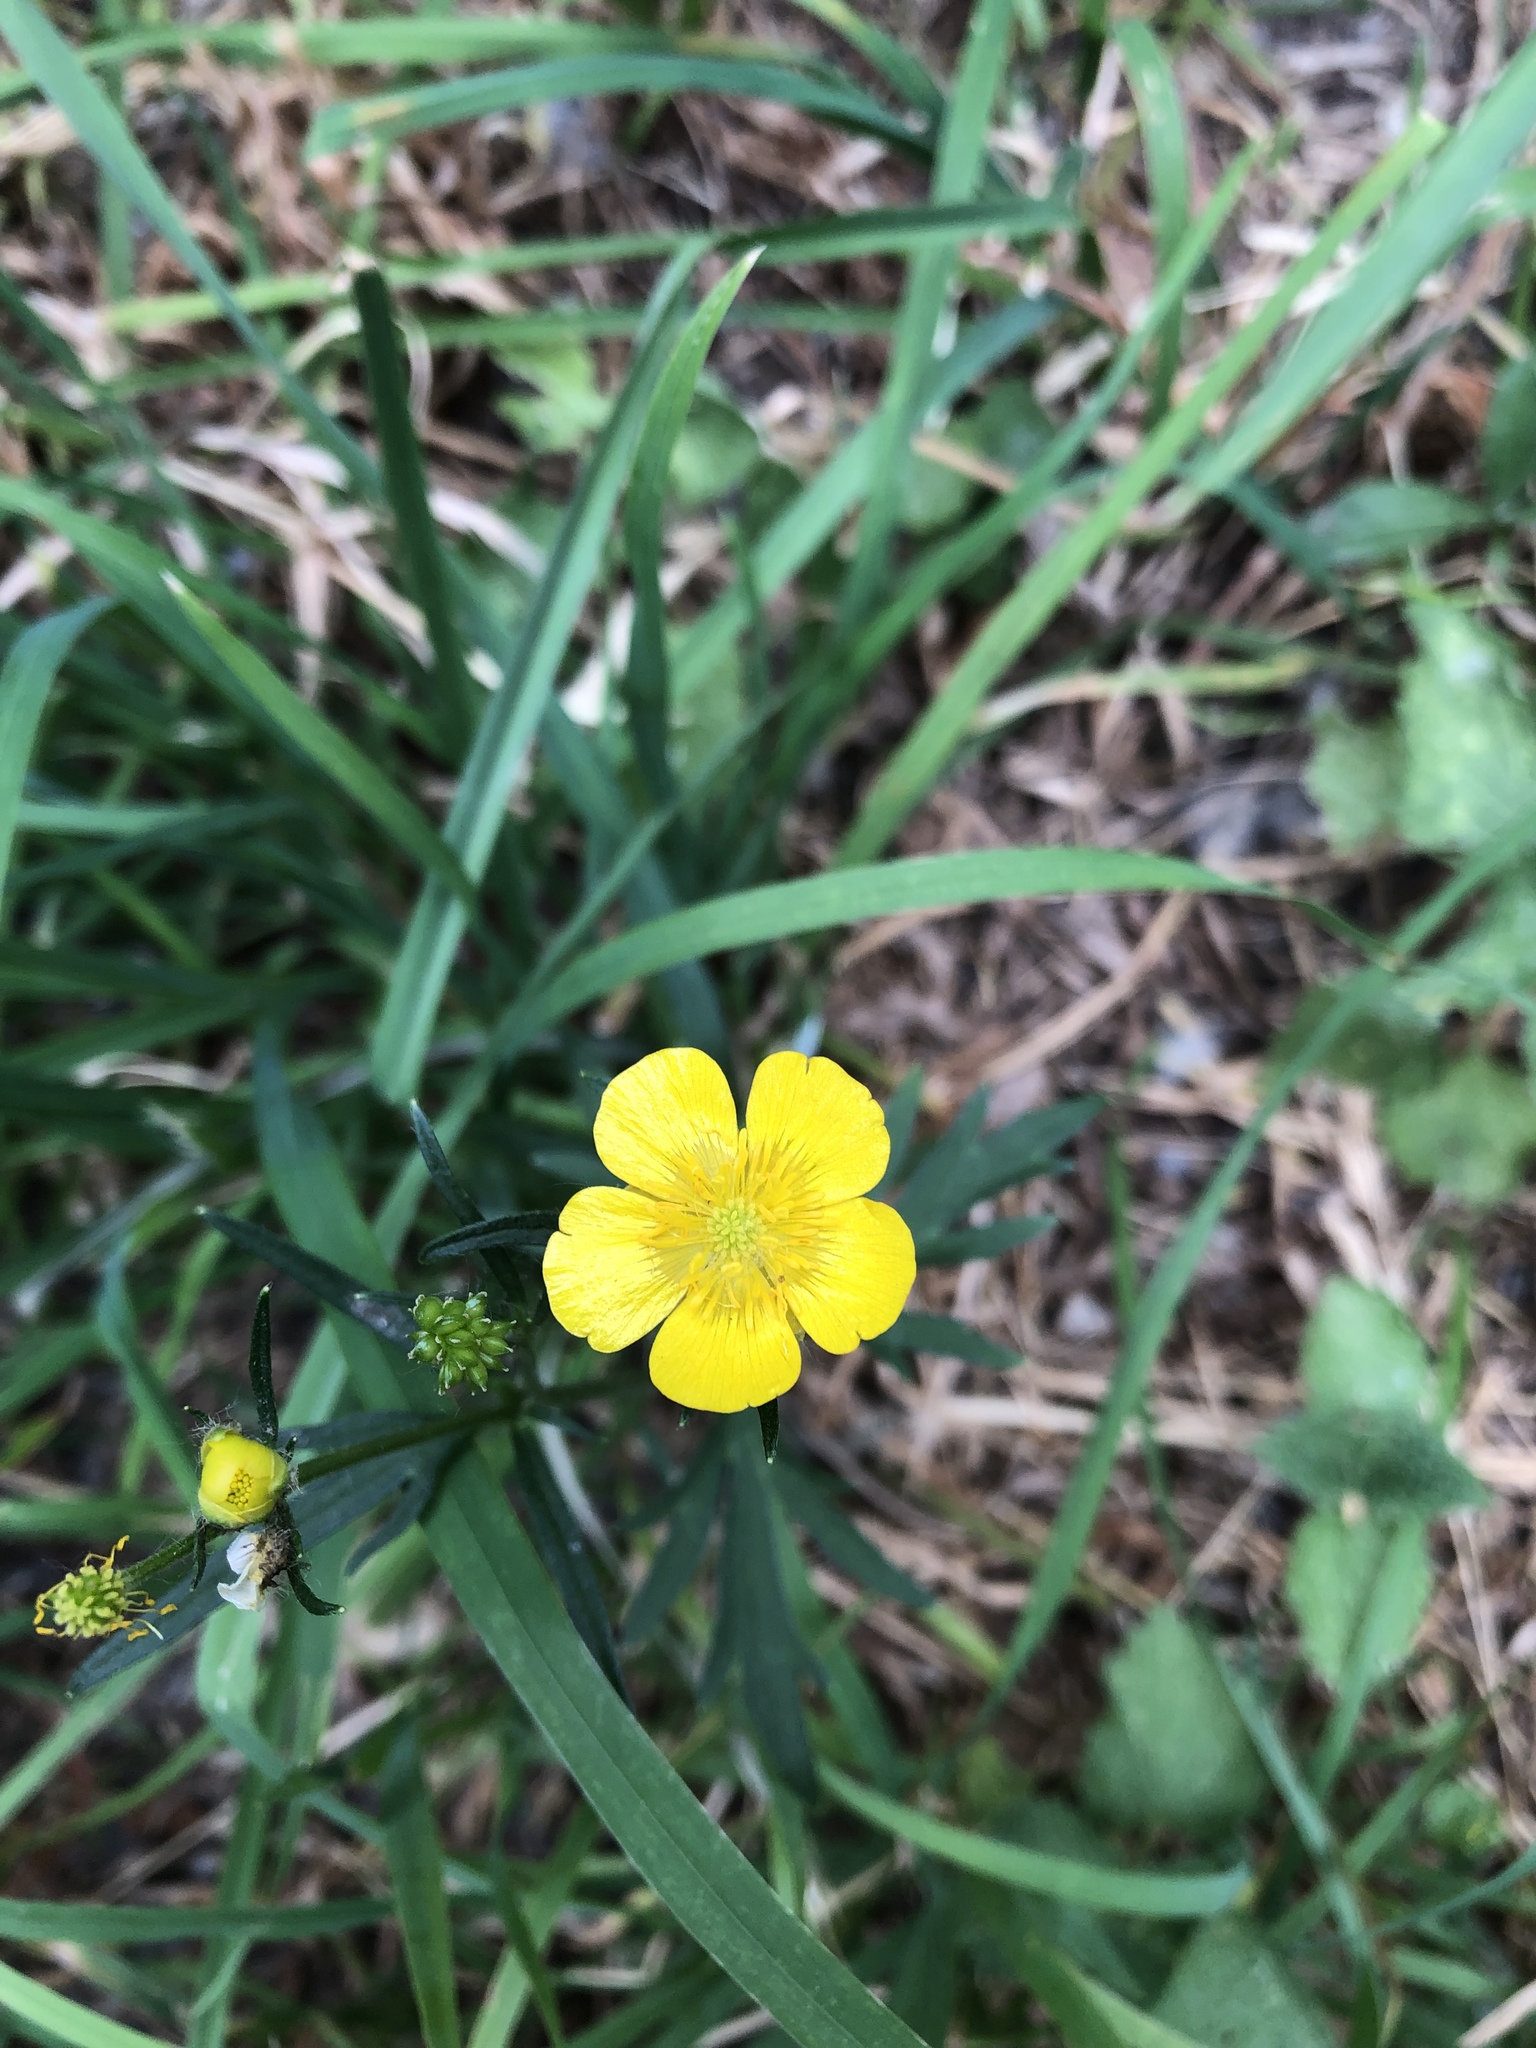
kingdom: Plantae
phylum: Tracheophyta
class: Magnoliopsida
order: Ranunculales
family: Ranunculaceae
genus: Ranunculus
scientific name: Ranunculus polyanthemos
